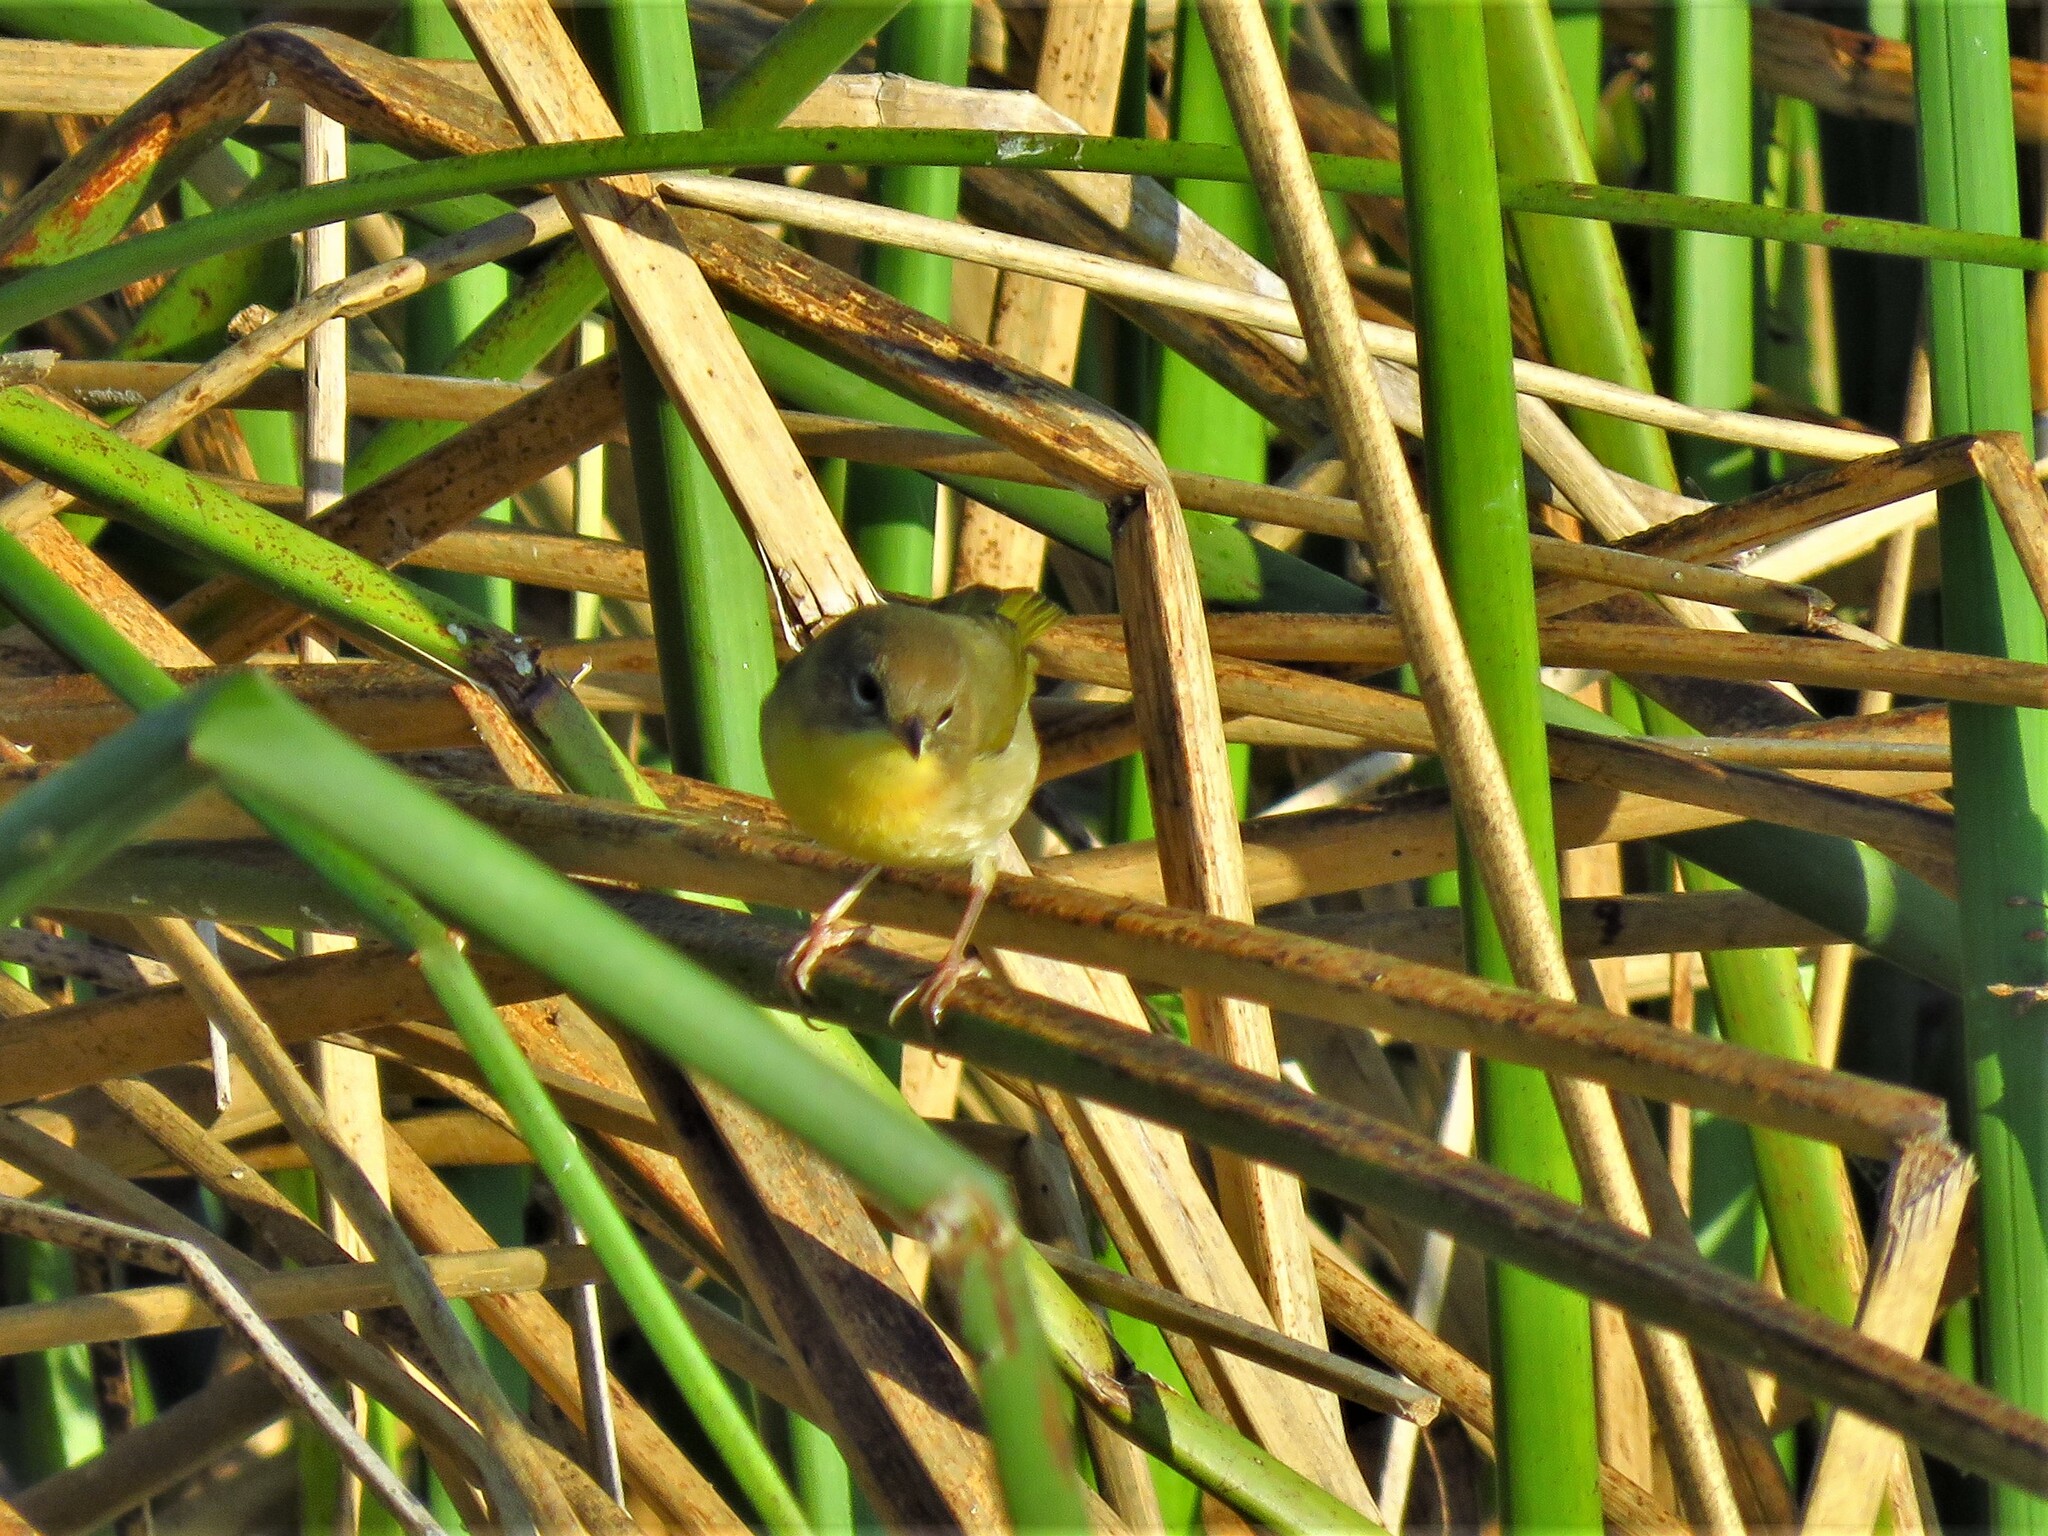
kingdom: Animalia
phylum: Chordata
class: Aves
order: Passeriformes
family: Parulidae
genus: Geothlypis
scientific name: Geothlypis trichas
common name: Common yellowthroat
